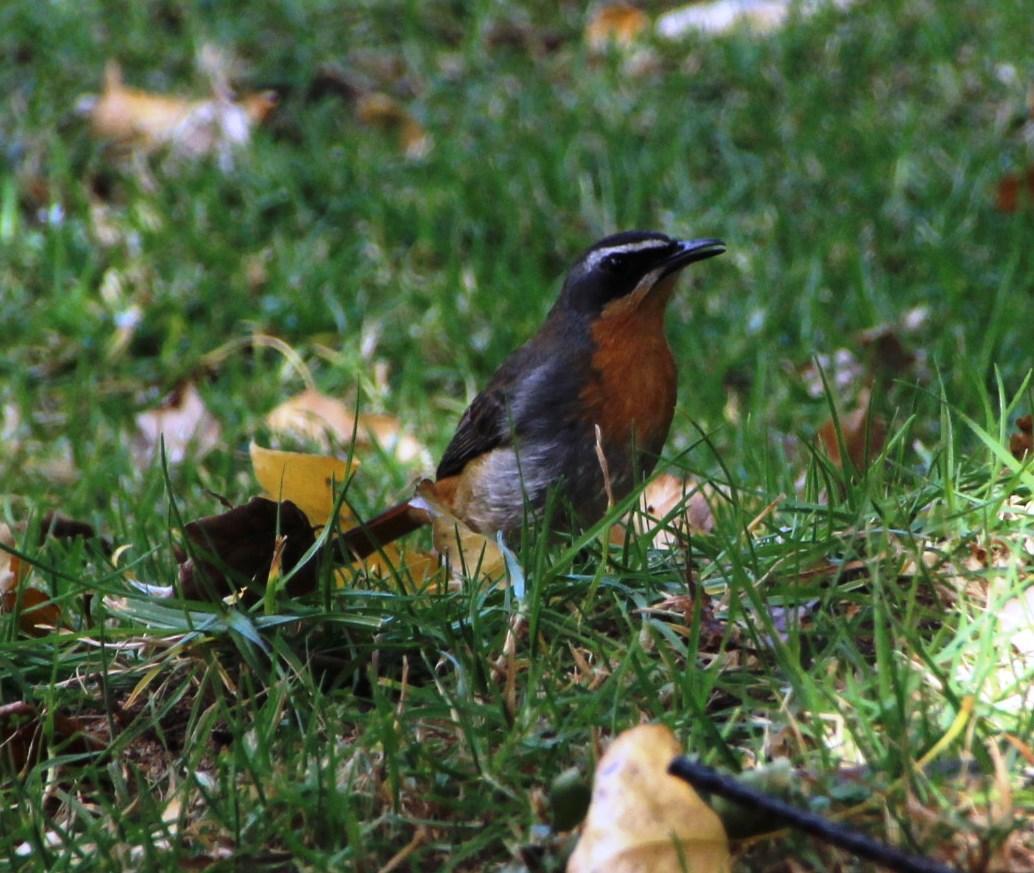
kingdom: Animalia
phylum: Chordata
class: Aves
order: Passeriformes
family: Muscicapidae
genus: Cossypha
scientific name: Cossypha caffra
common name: Cape robin-chat
